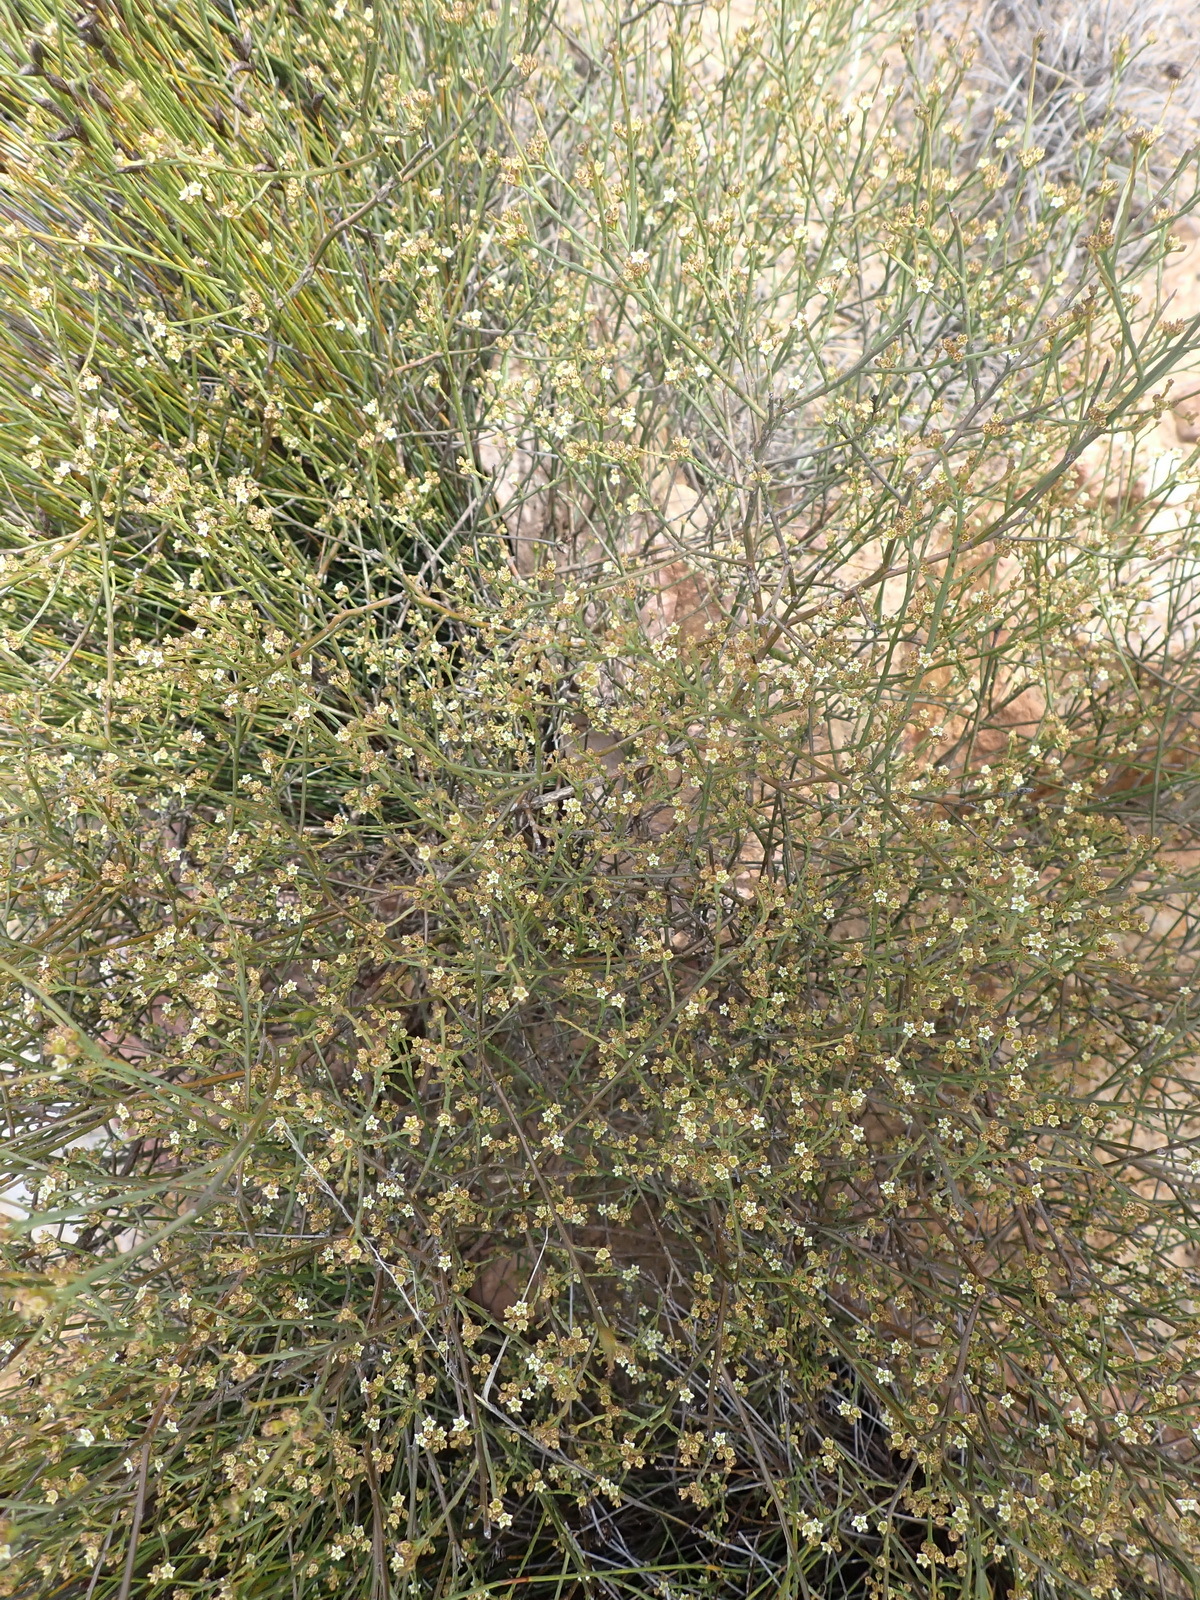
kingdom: Plantae
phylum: Tracheophyta
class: Magnoliopsida
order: Santalales
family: Thesiaceae
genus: Thesium
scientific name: Thesium virgatum
